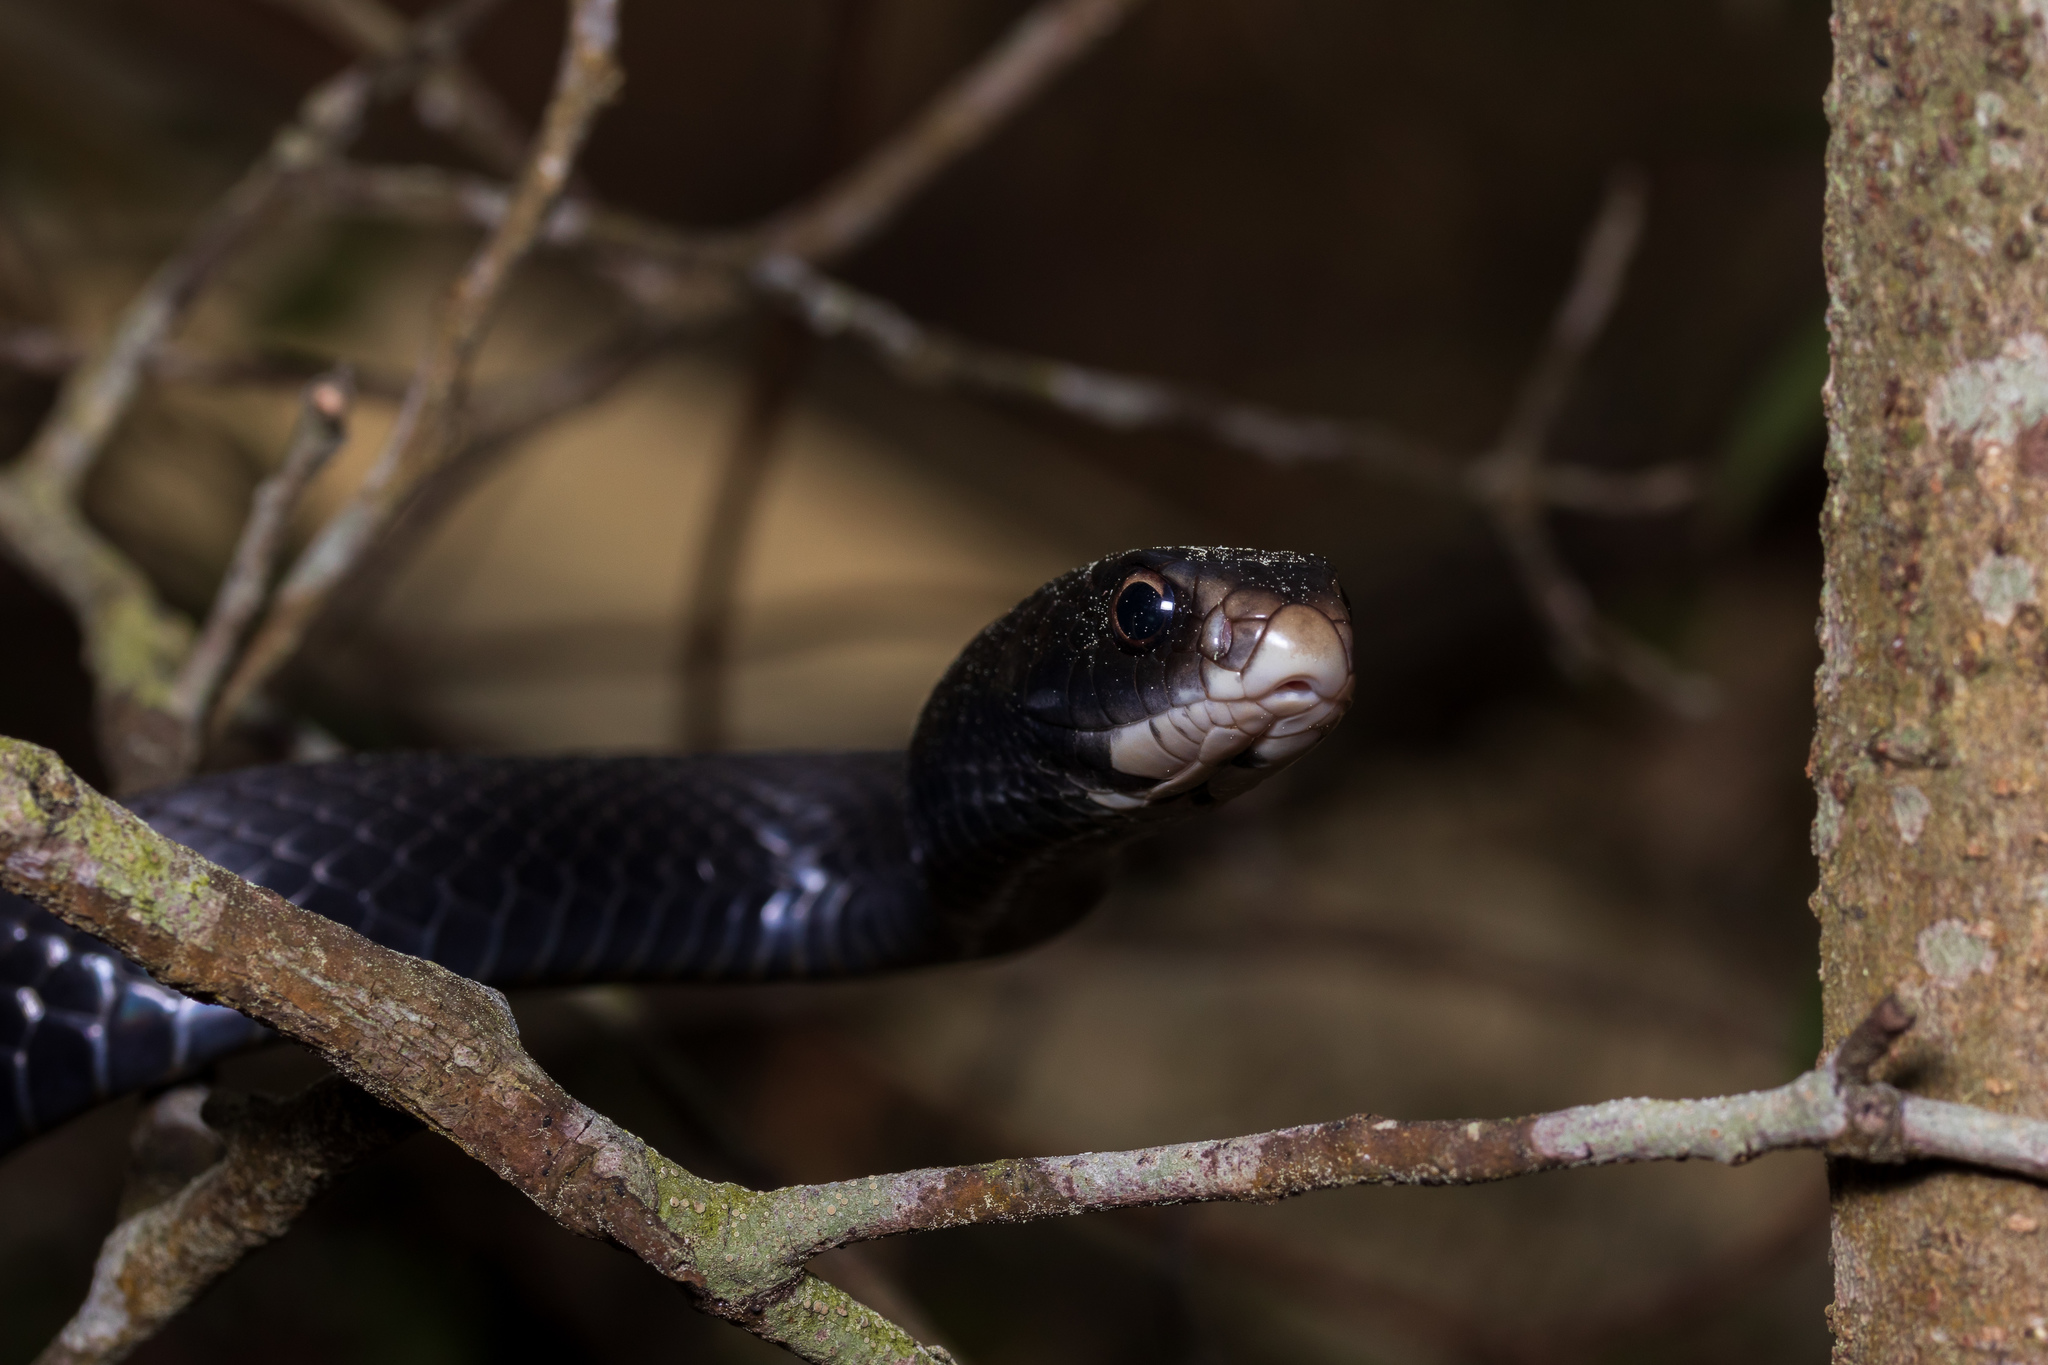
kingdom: Animalia
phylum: Chordata
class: Squamata
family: Colubridae
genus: Coluber
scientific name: Coluber constrictor
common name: Eastern racer
